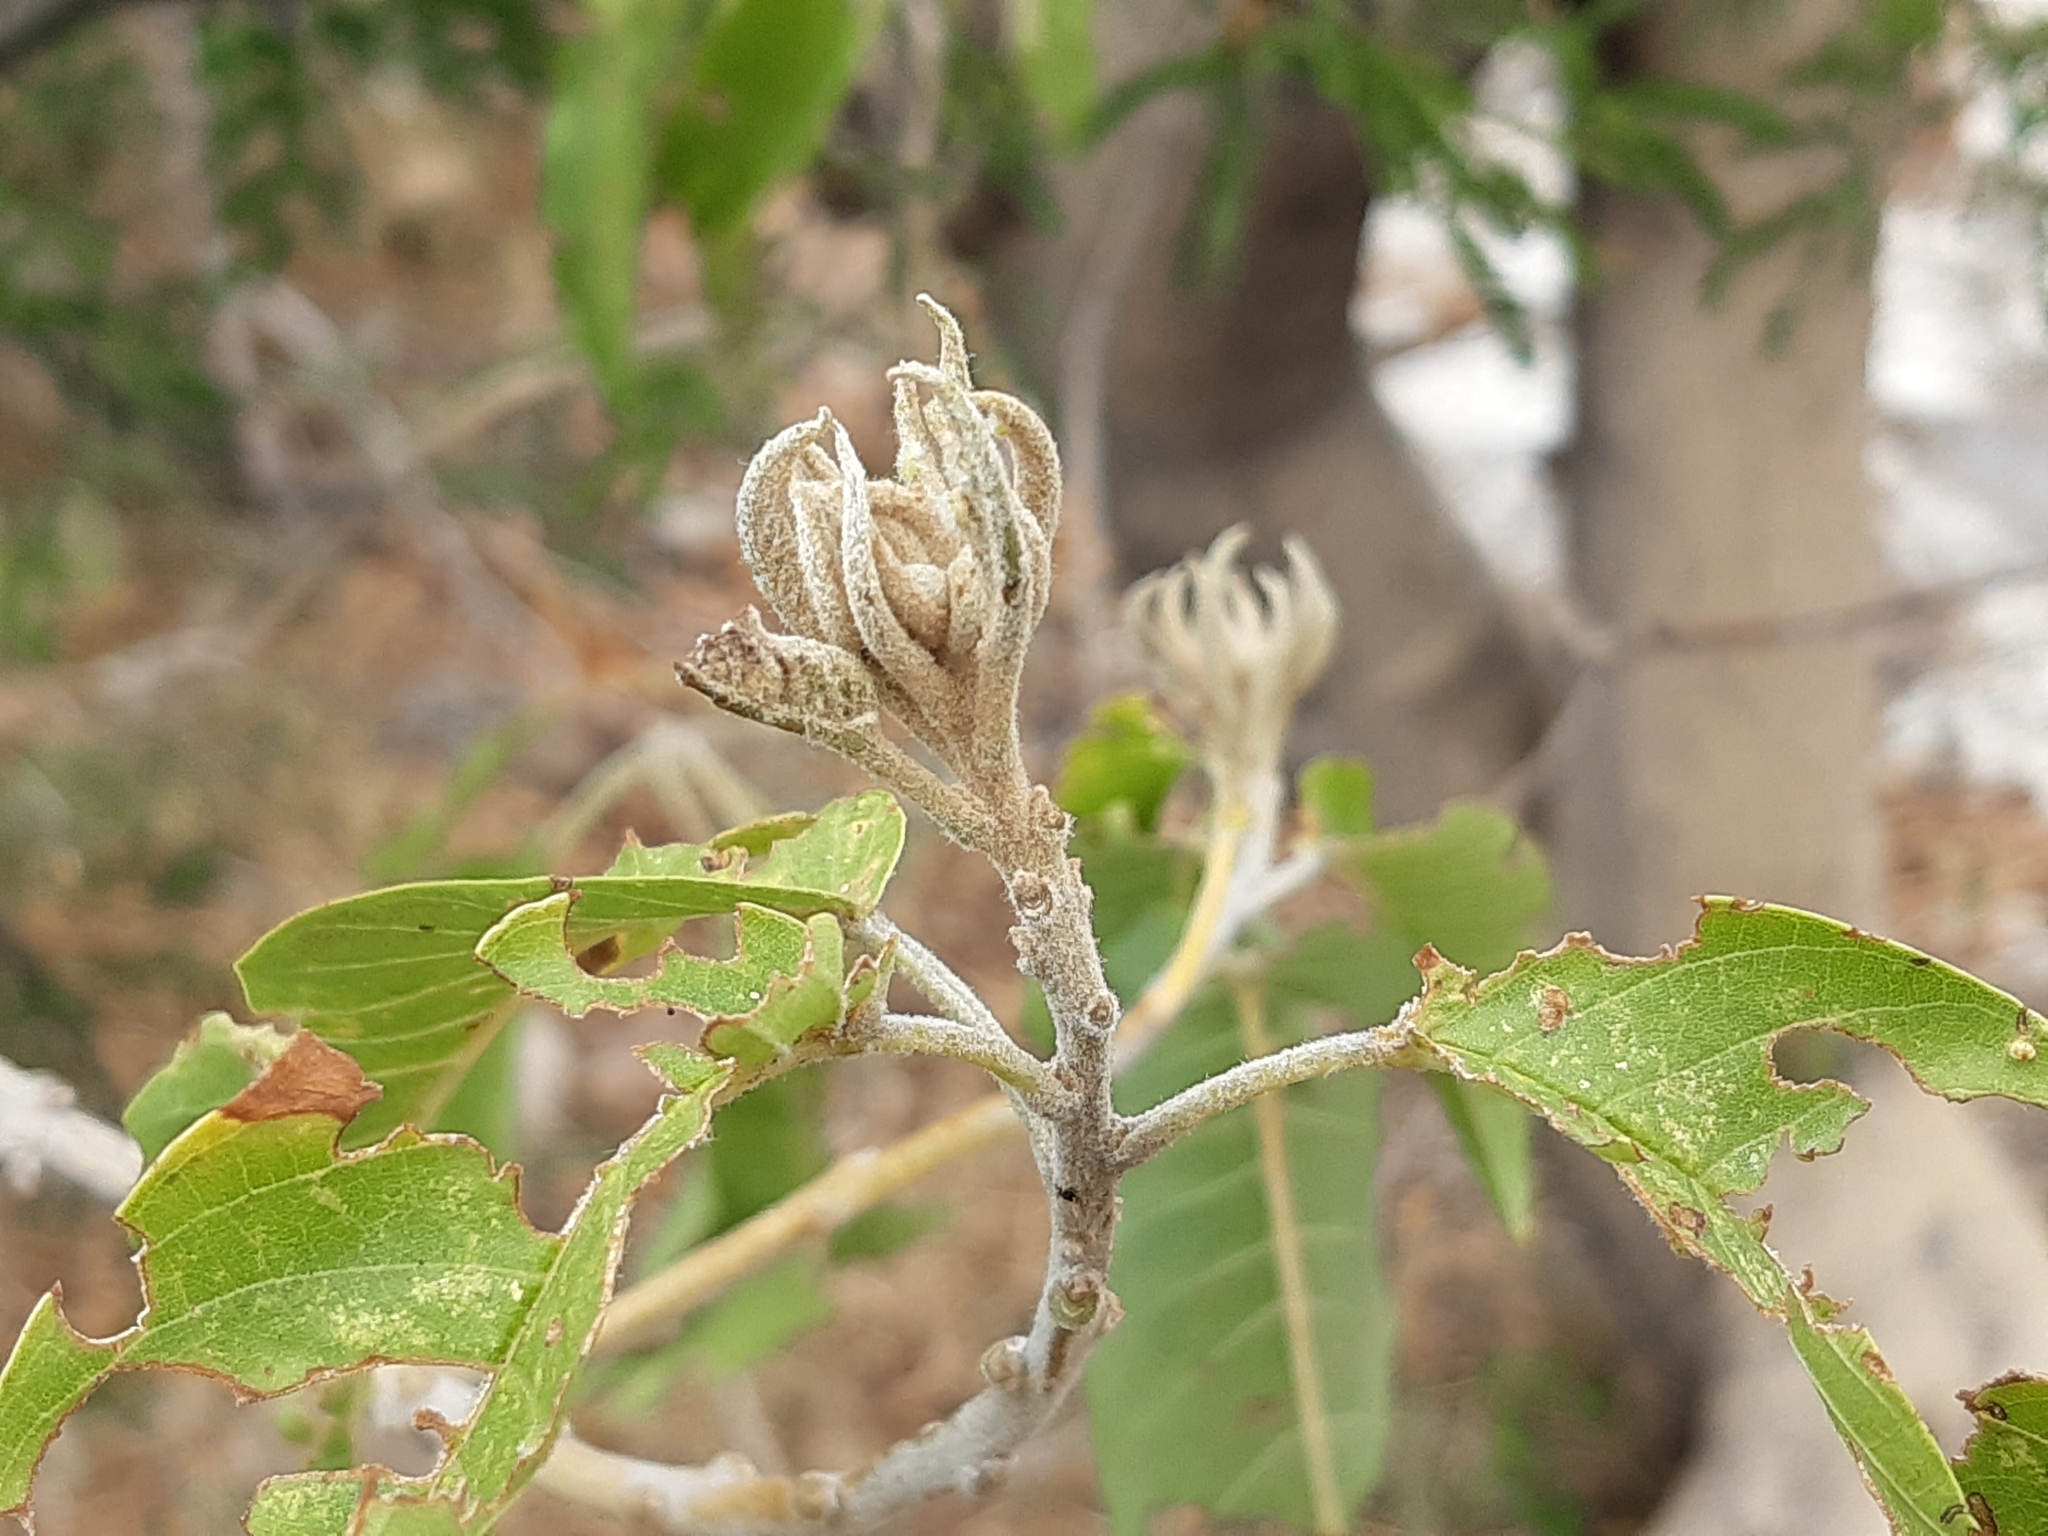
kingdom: Plantae
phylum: Tracheophyta
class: Magnoliopsida
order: Solanales
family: Convolvulaceae
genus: Ipomoea
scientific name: Ipomoea murucoides
